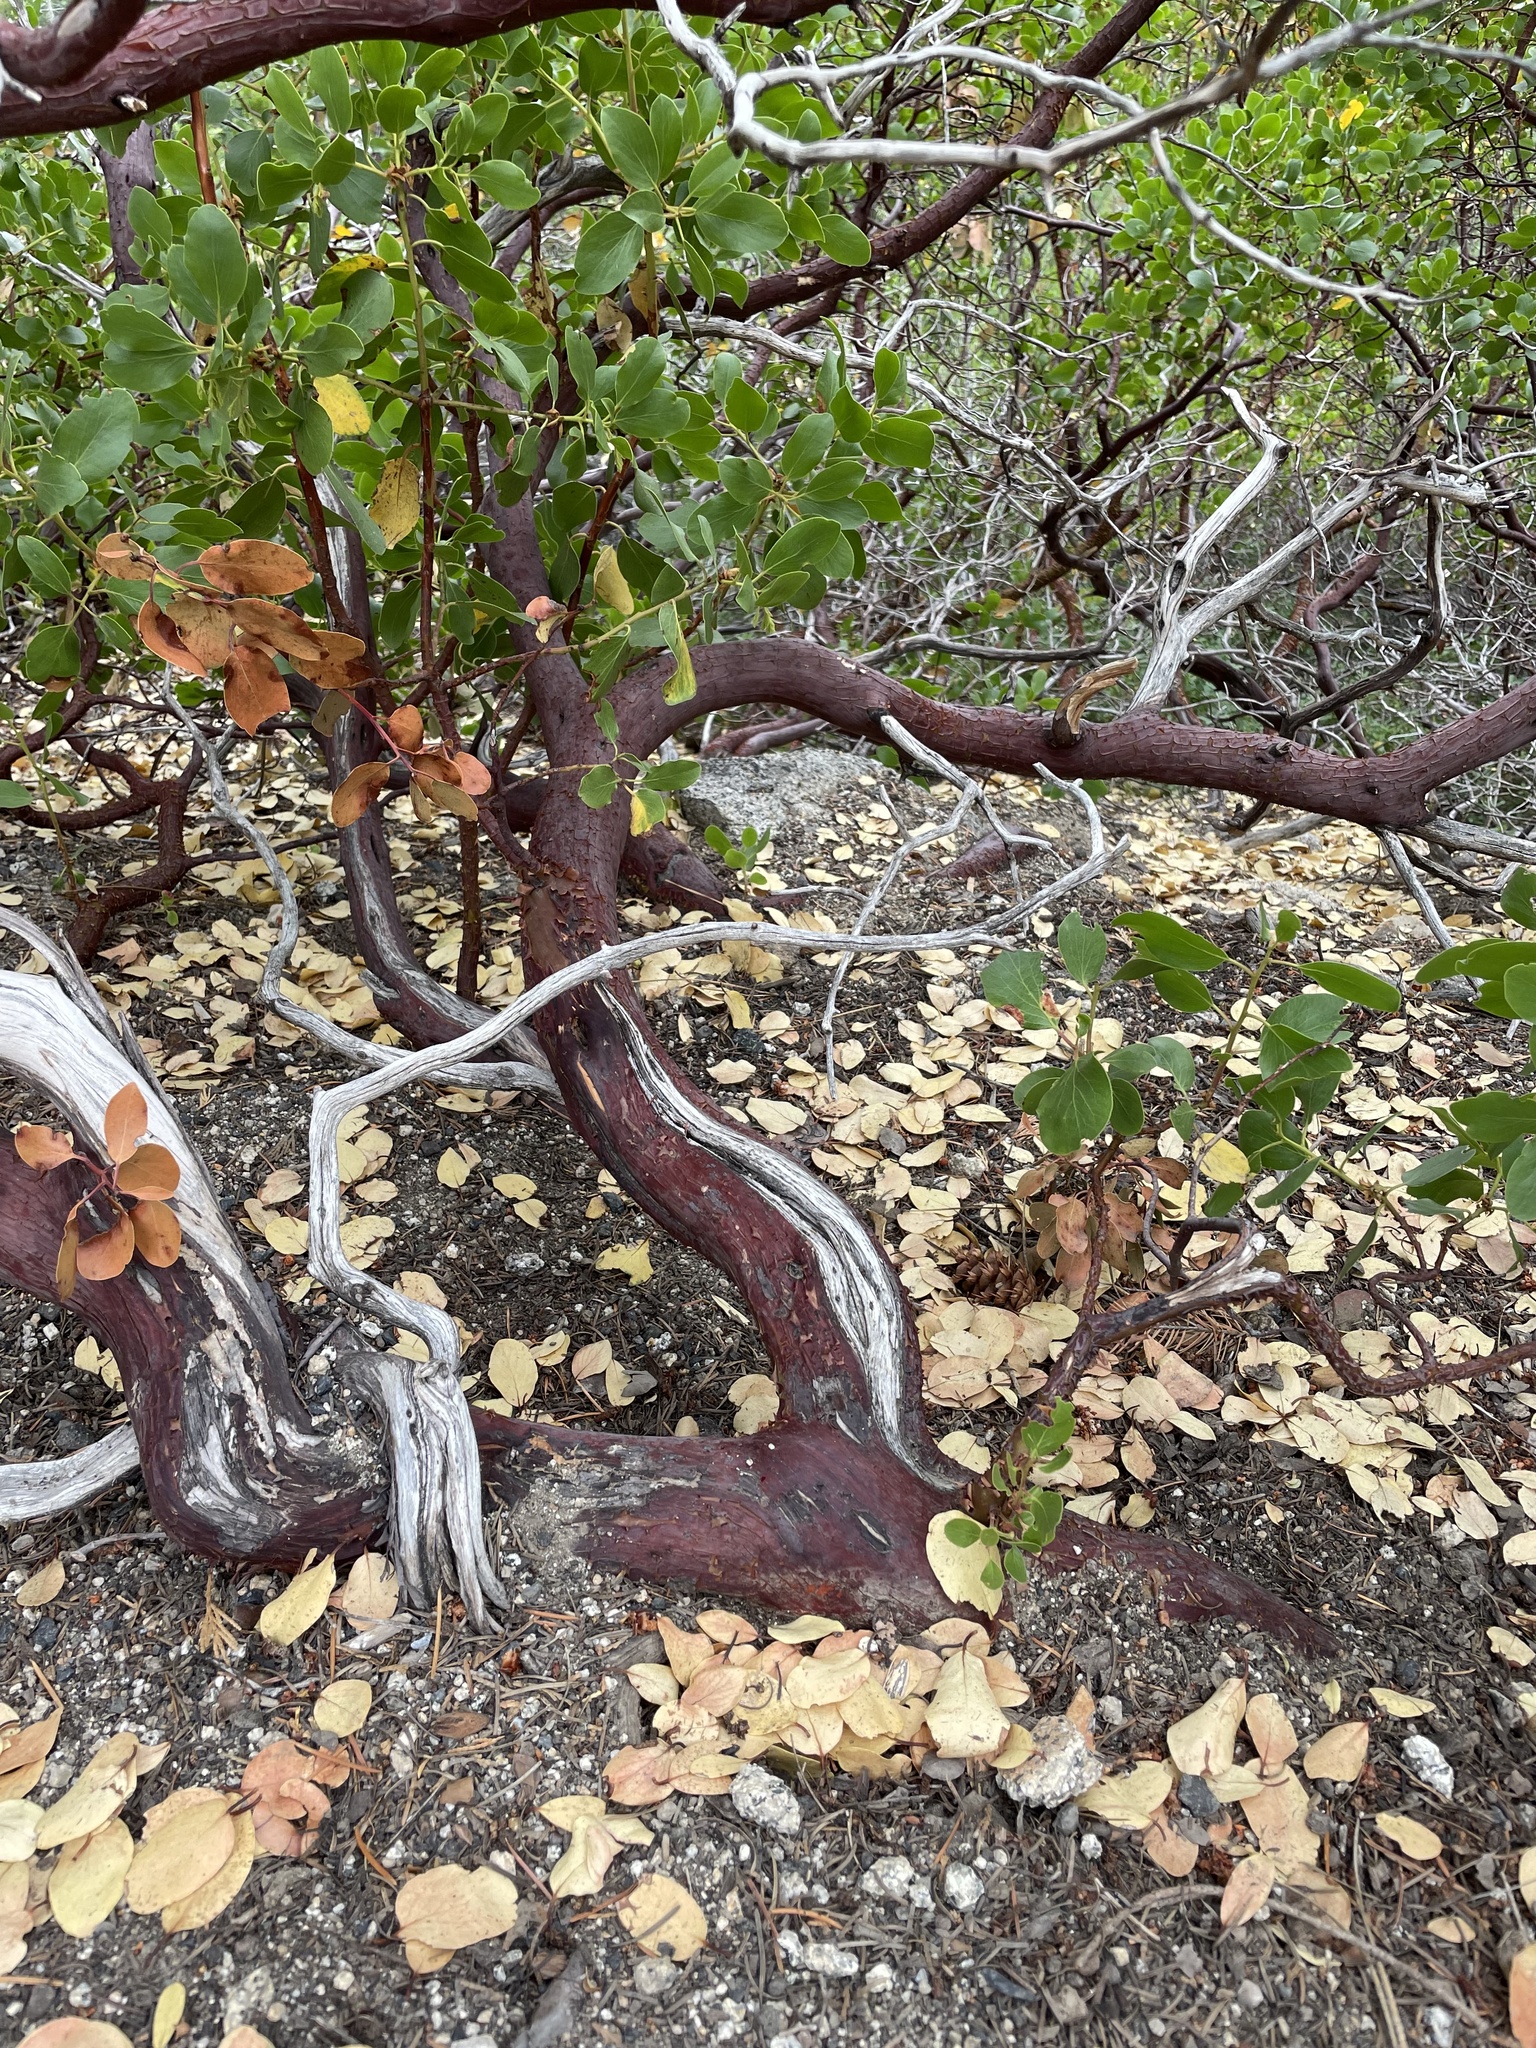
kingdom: Plantae
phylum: Tracheophyta
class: Magnoliopsida
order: Ericales
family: Ericaceae
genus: Arctostaphylos
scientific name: Arctostaphylos patula
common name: Green-leaf manzanita
